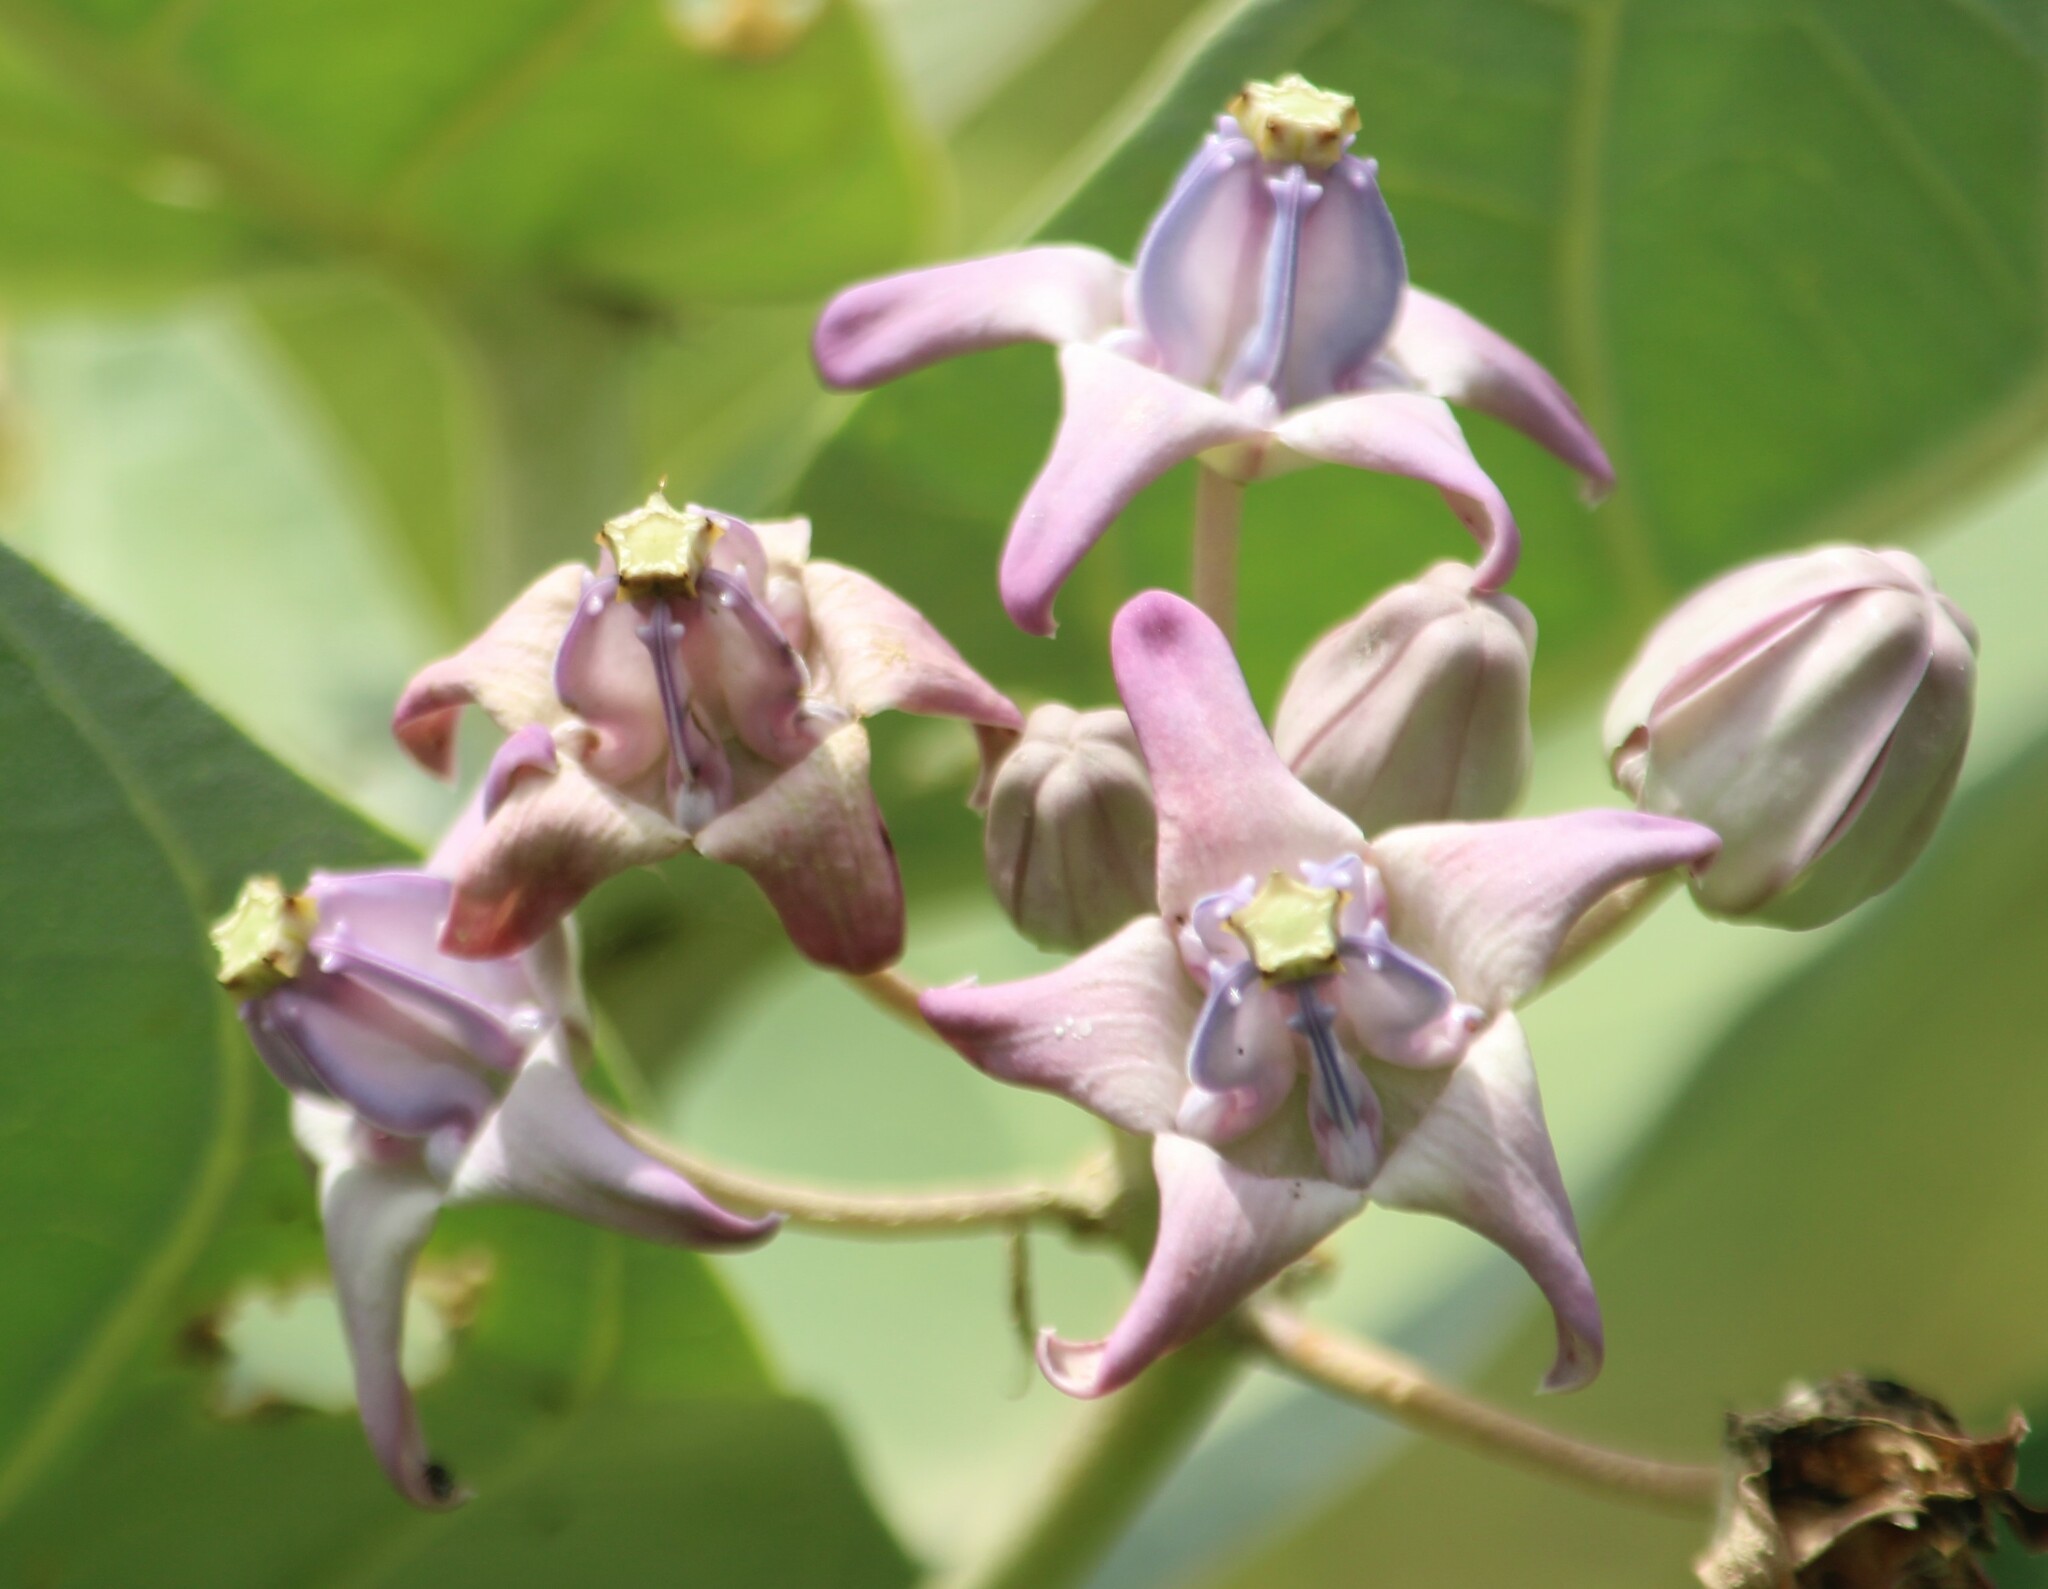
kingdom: Plantae
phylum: Tracheophyta
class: Magnoliopsida
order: Gentianales
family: Apocynaceae
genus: Calotropis
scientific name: Calotropis gigantea
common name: Crown flower
